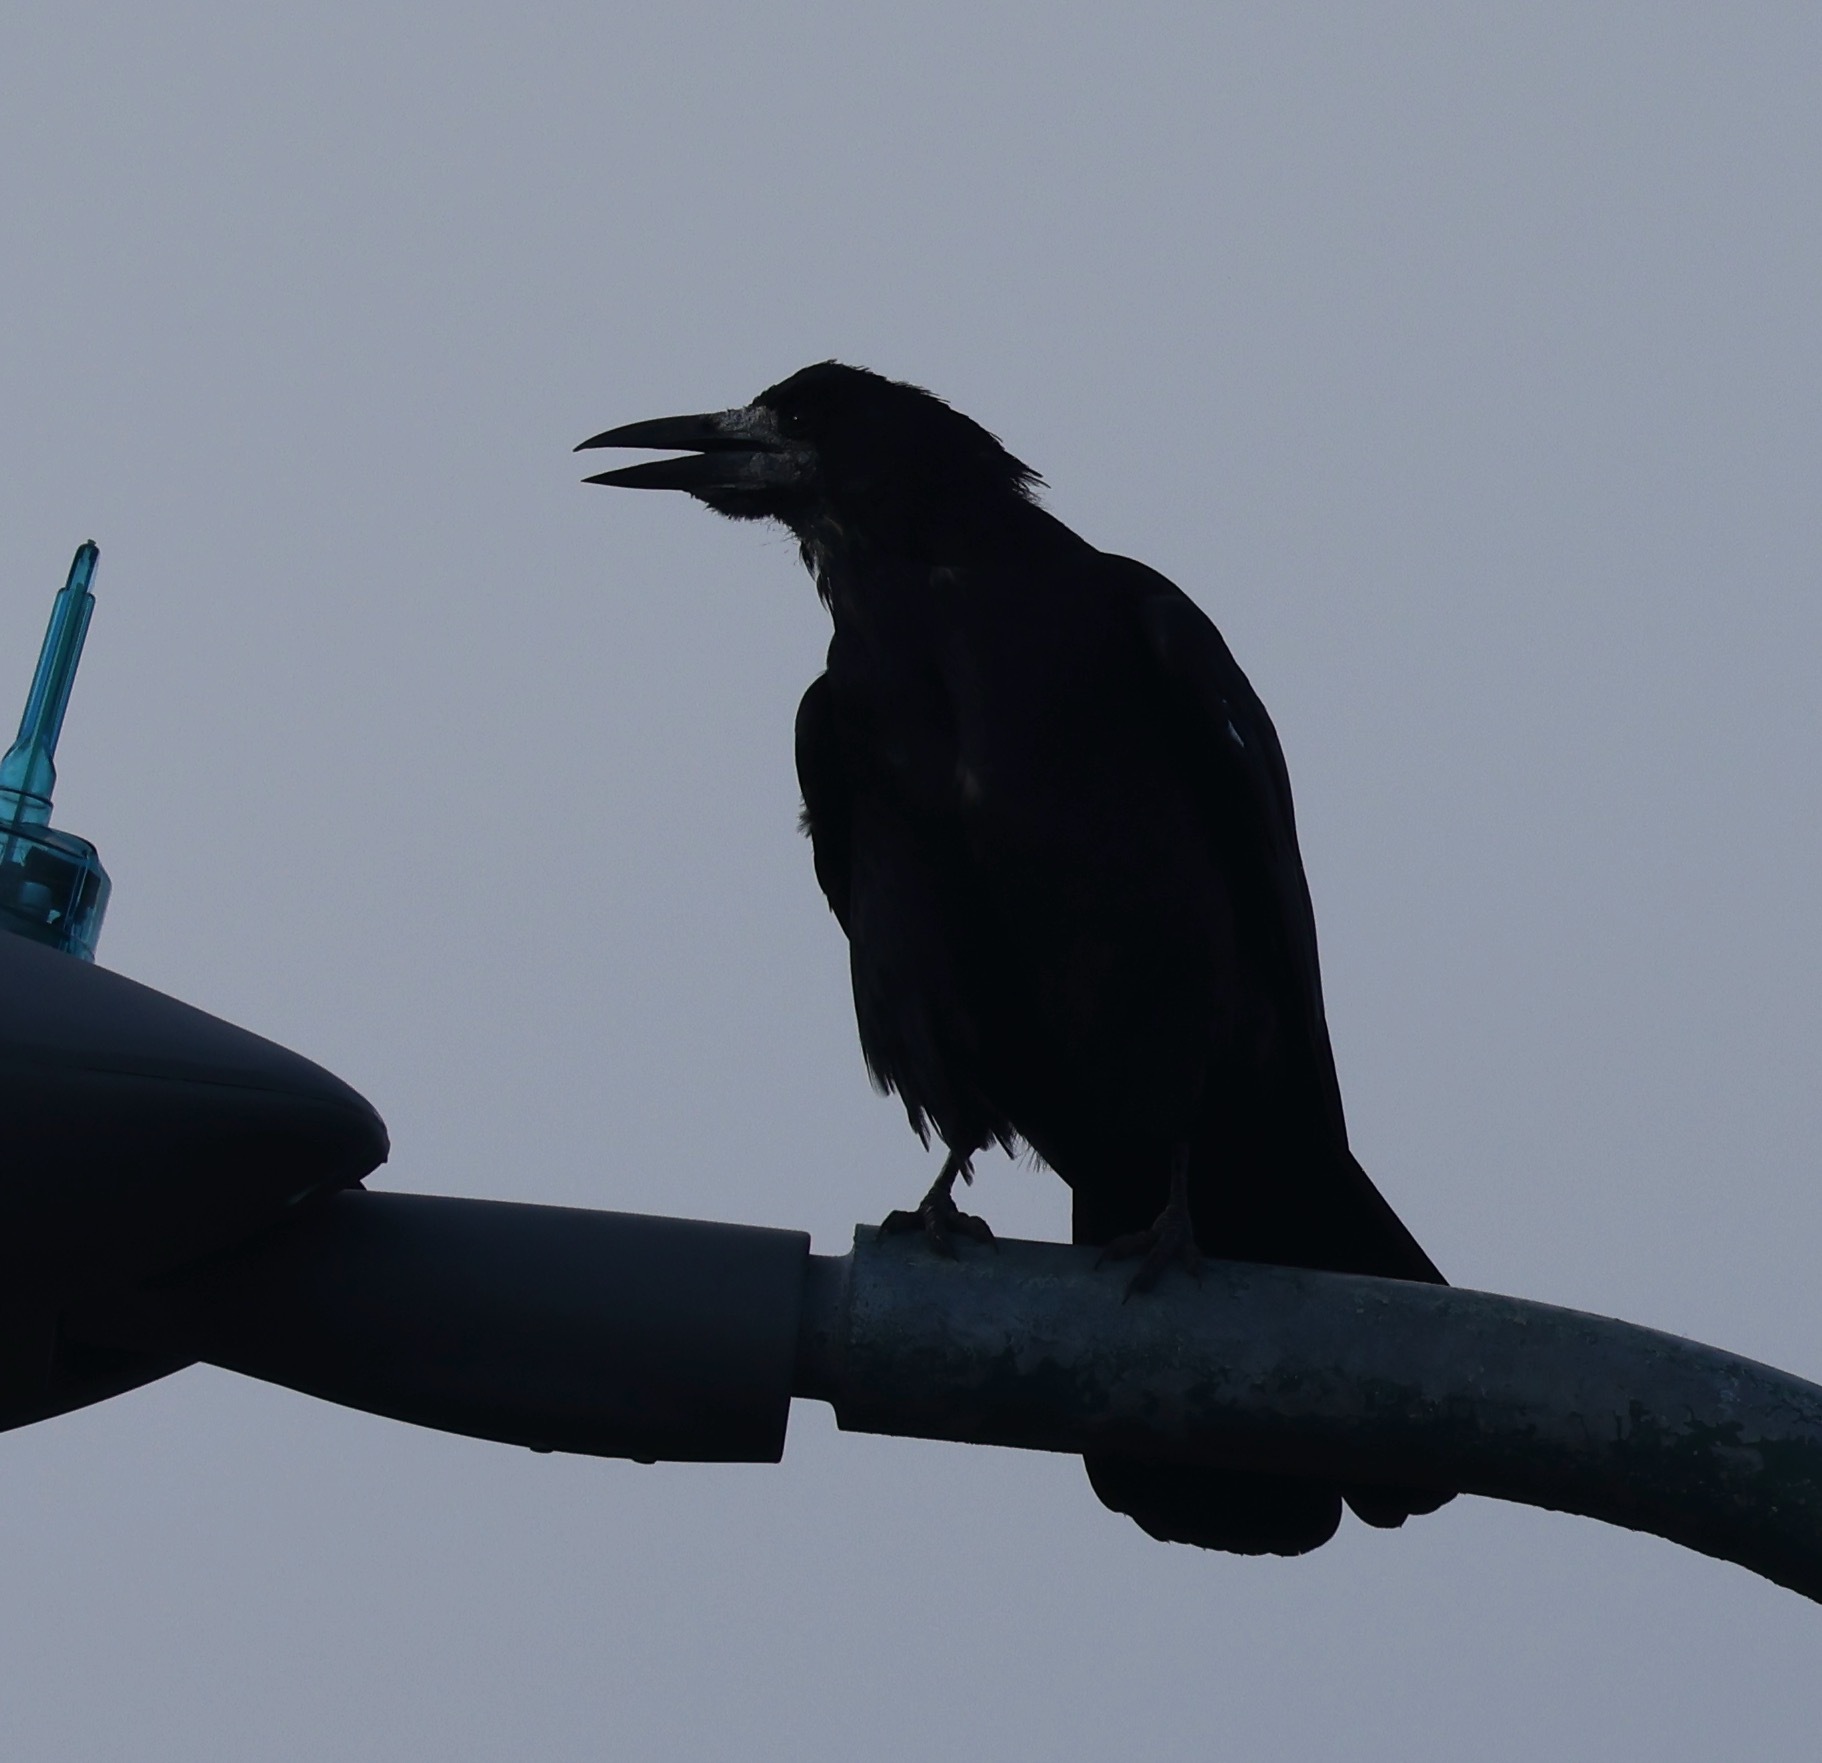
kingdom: Animalia
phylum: Chordata
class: Aves
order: Passeriformes
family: Corvidae
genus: Corvus
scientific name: Corvus frugilegus
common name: Rook
